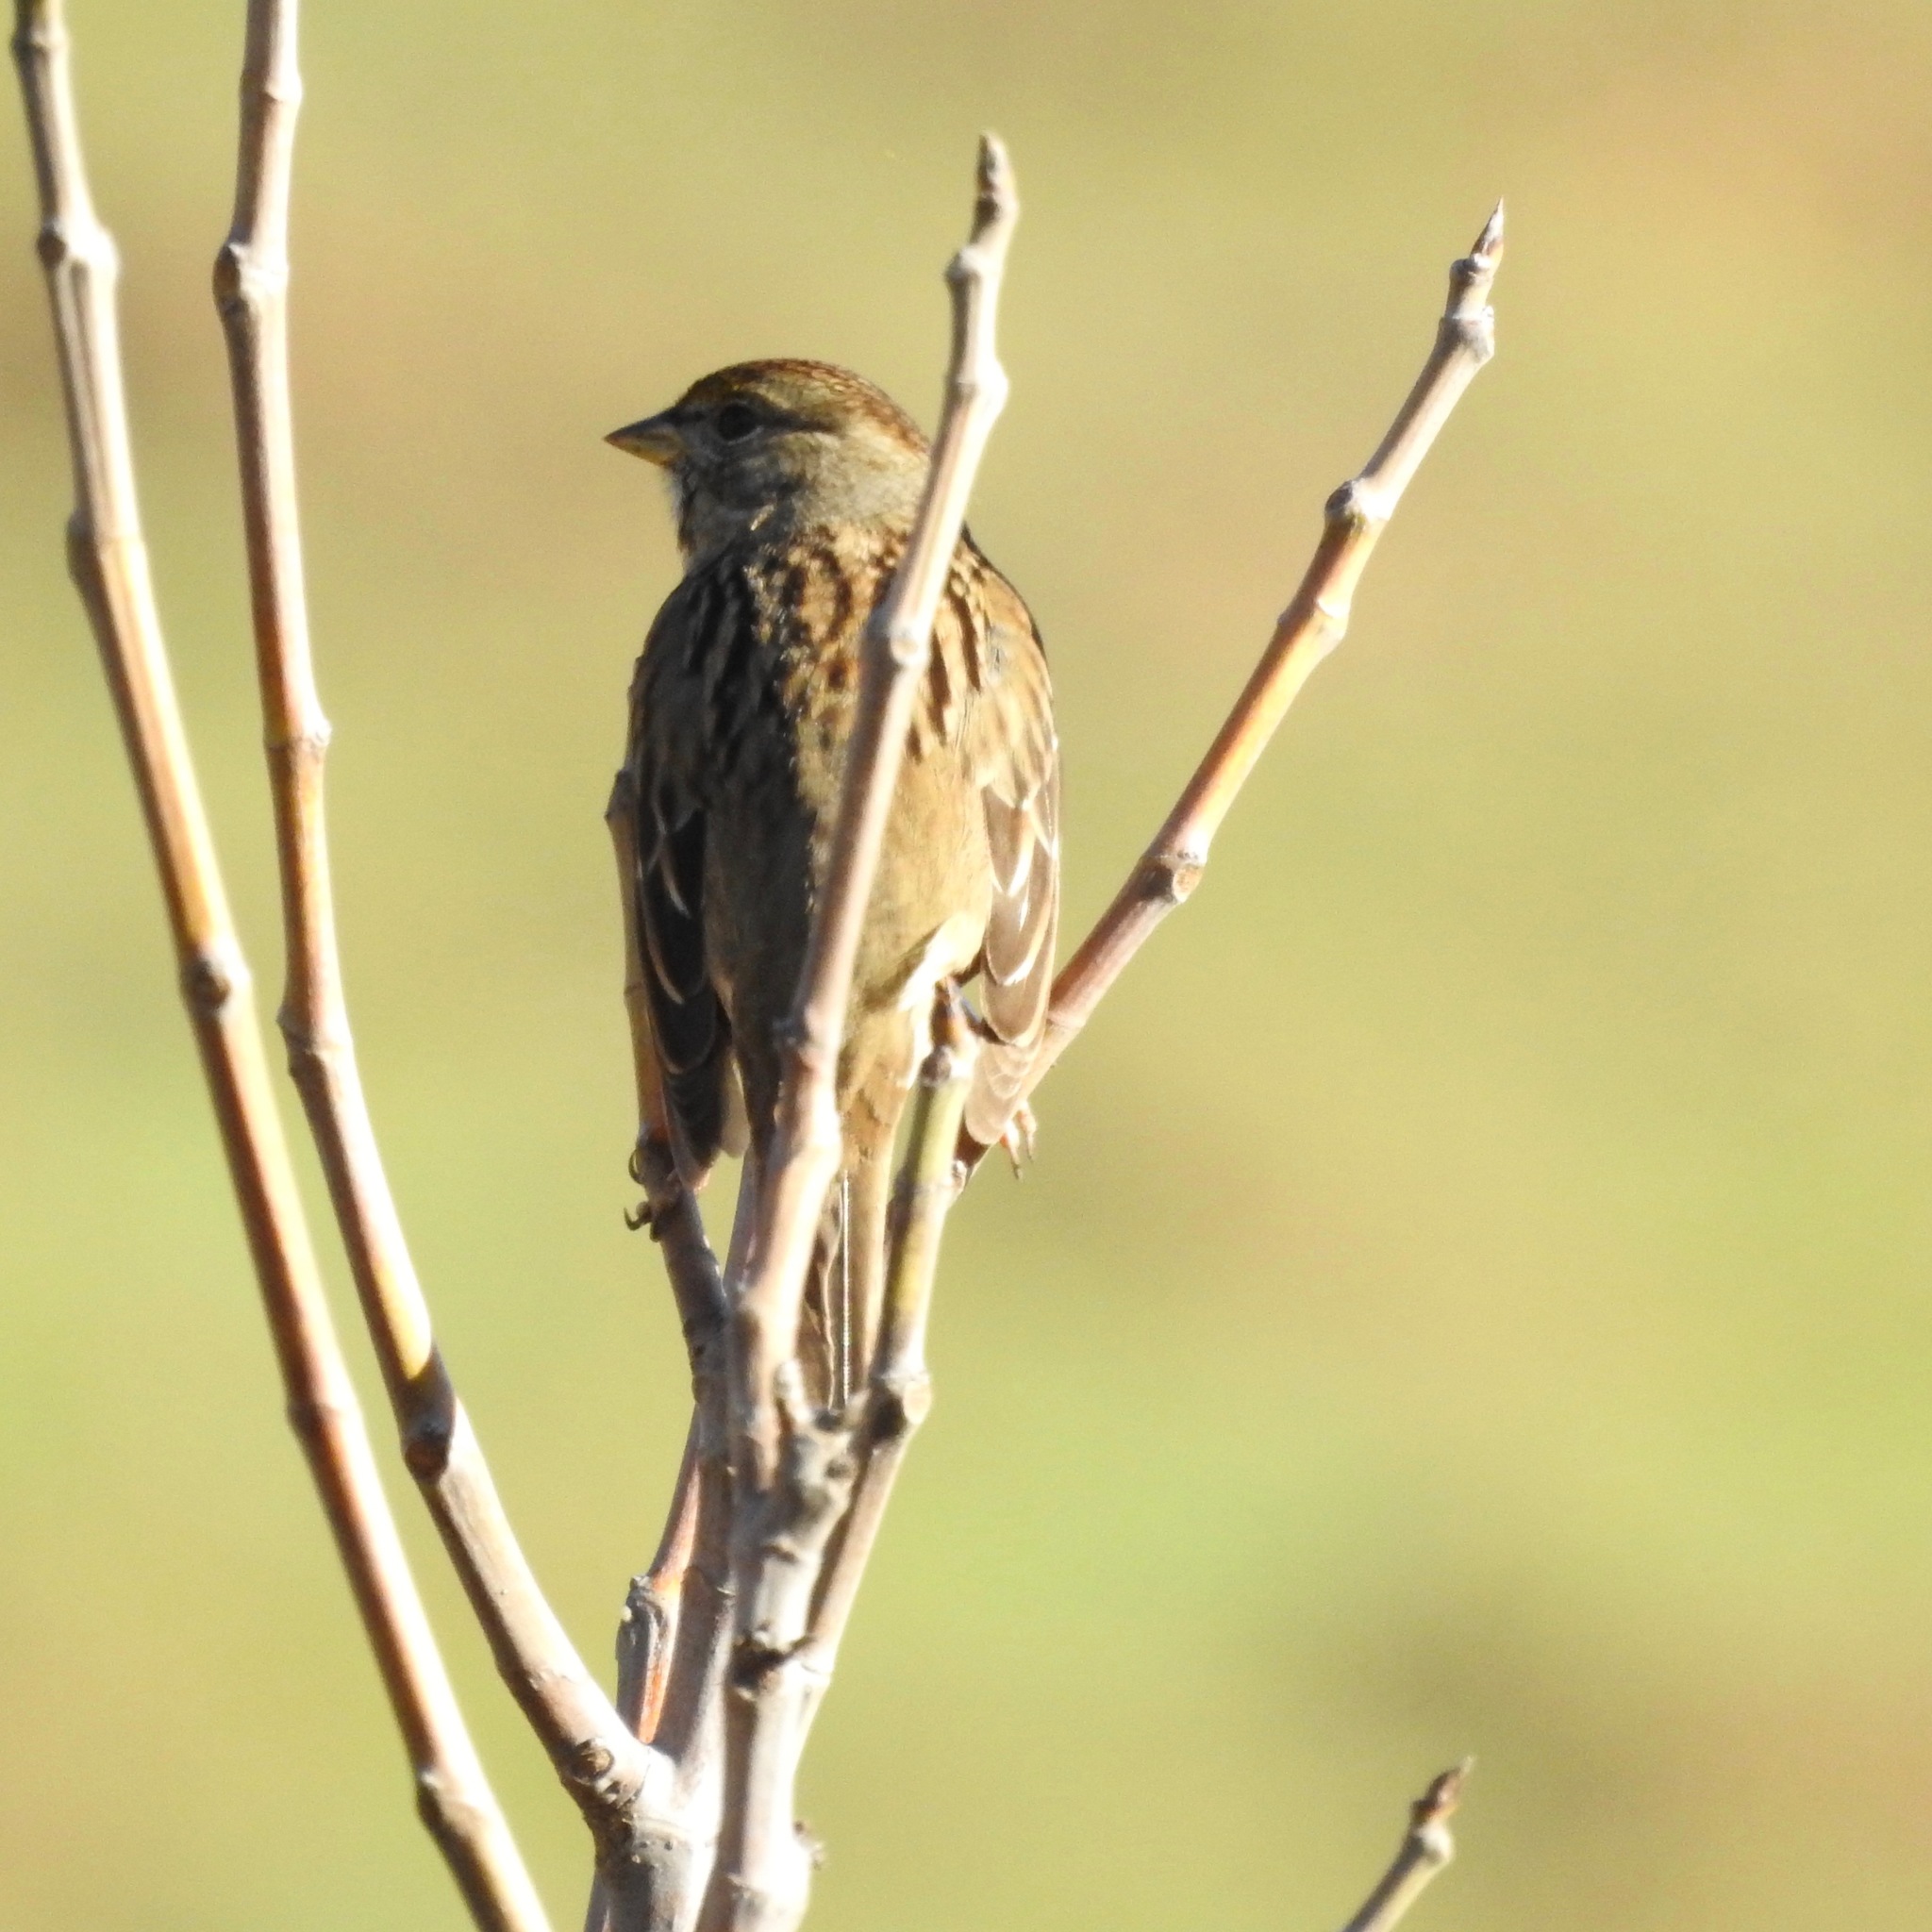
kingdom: Animalia
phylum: Chordata
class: Aves
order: Passeriformes
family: Passerellidae
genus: Zonotrichia
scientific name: Zonotrichia atricapilla
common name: Golden-crowned sparrow
